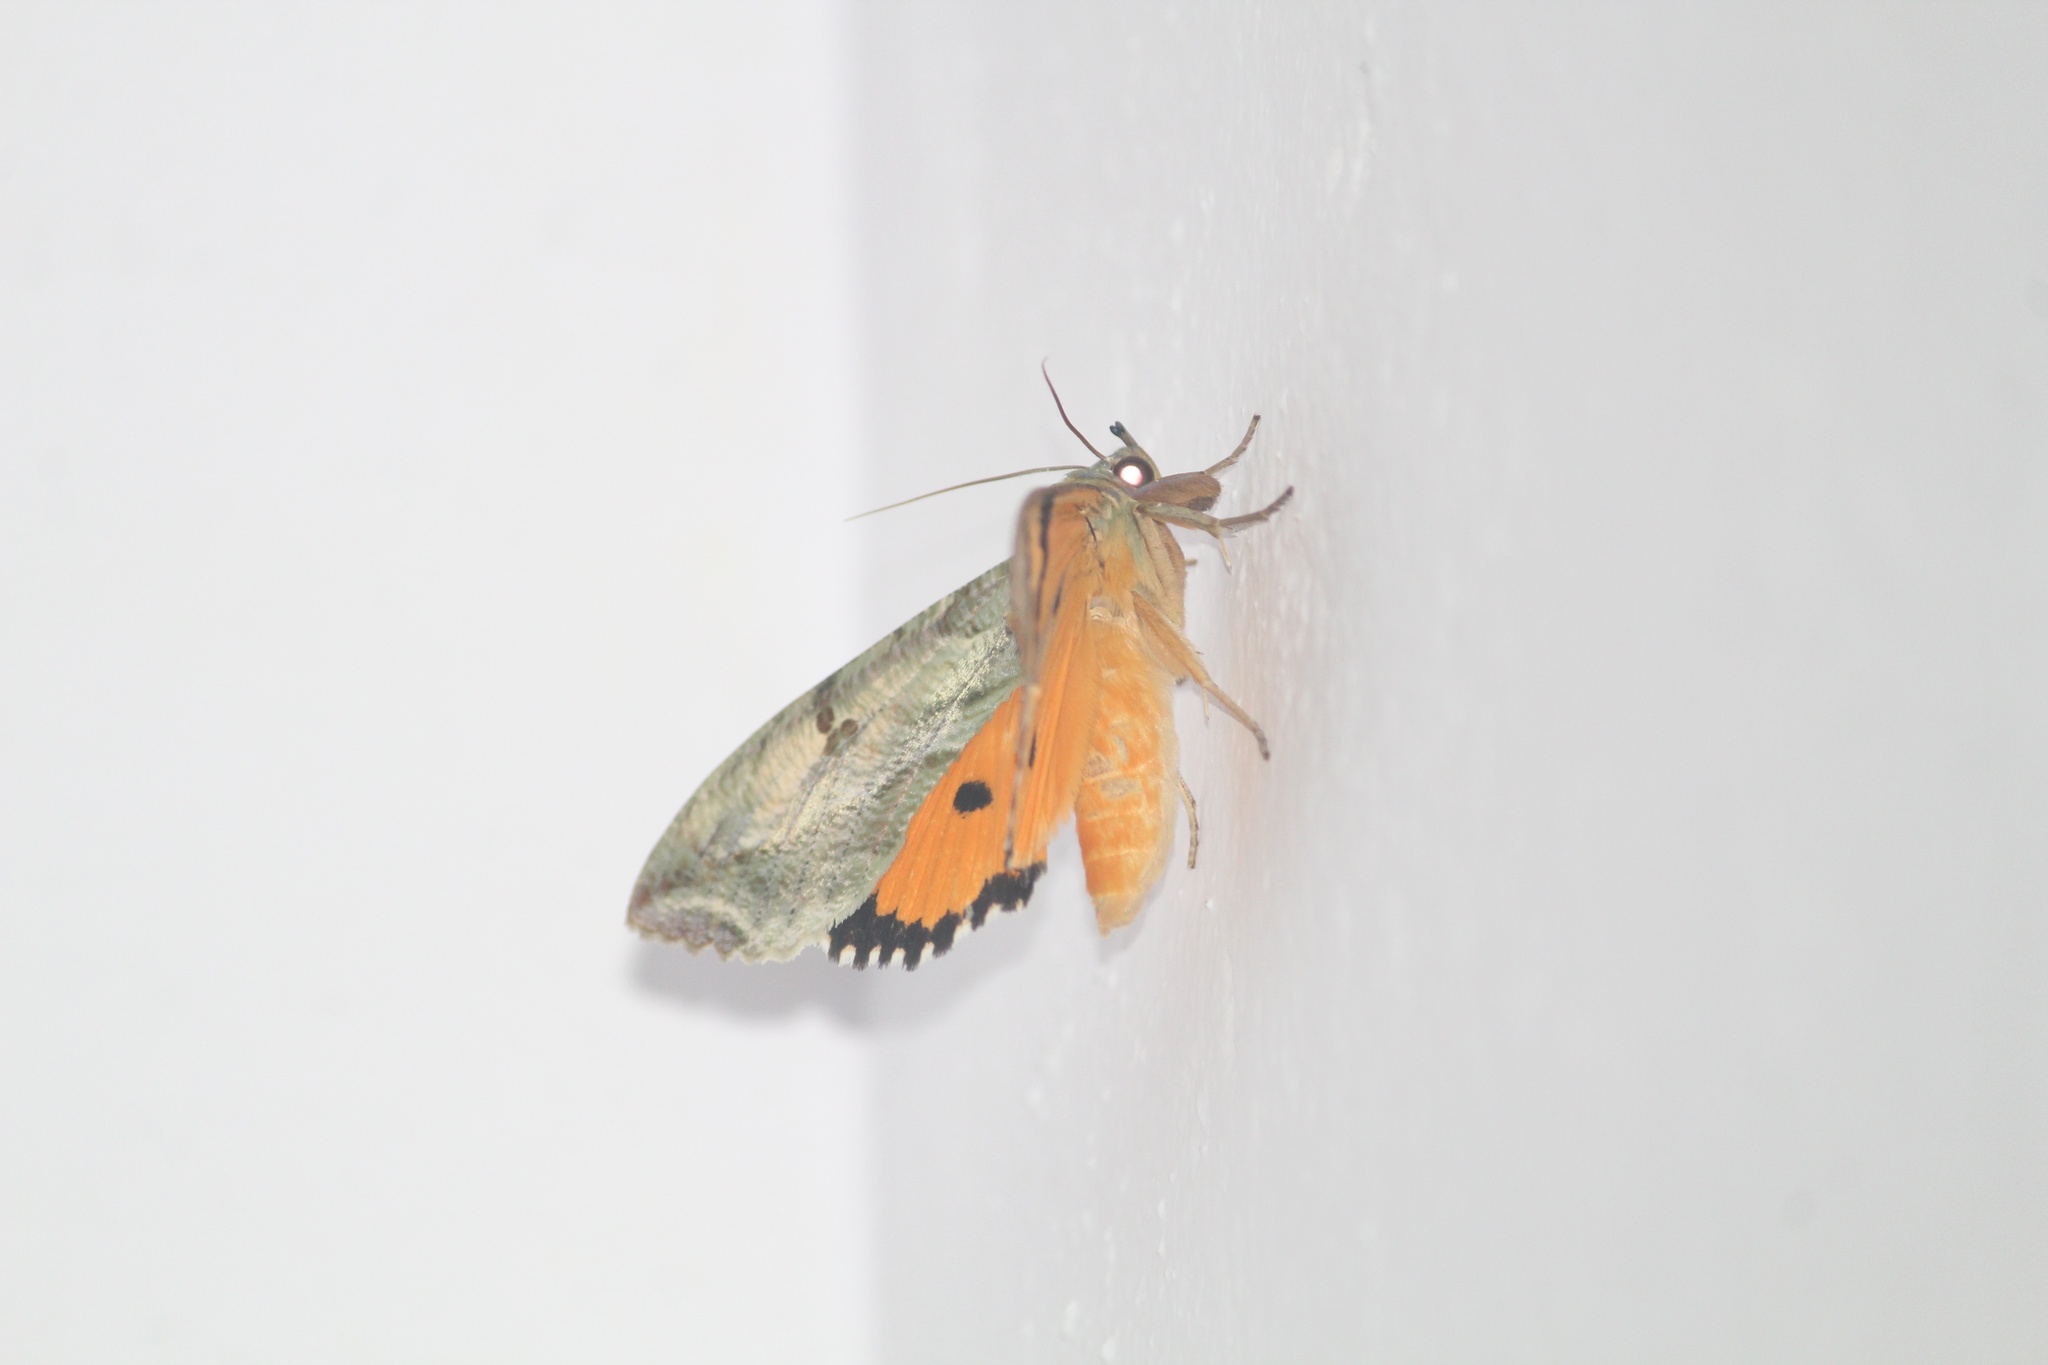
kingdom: Animalia
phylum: Arthropoda
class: Insecta
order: Lepidoptera
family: Erebidae
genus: Eudocima
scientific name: Eudocima materna
